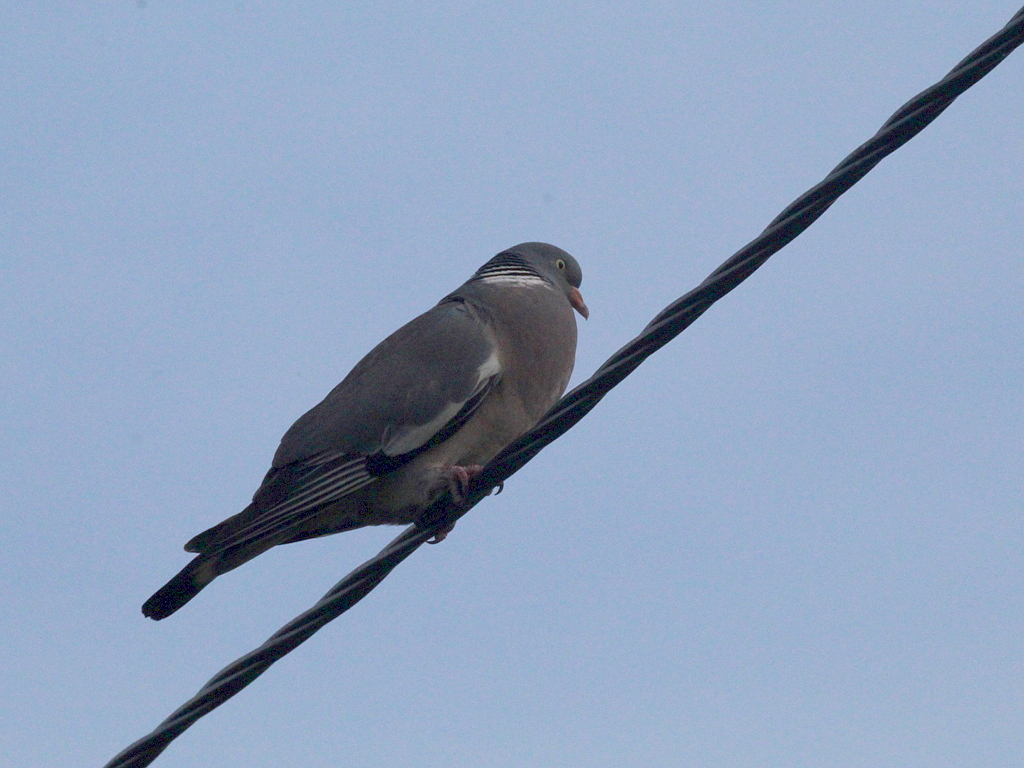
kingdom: Animalia
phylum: Chordata
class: Aves
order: Columbiformes
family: Columbidae
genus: Columba
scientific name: Columba palumbus
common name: Common wood pigeon
